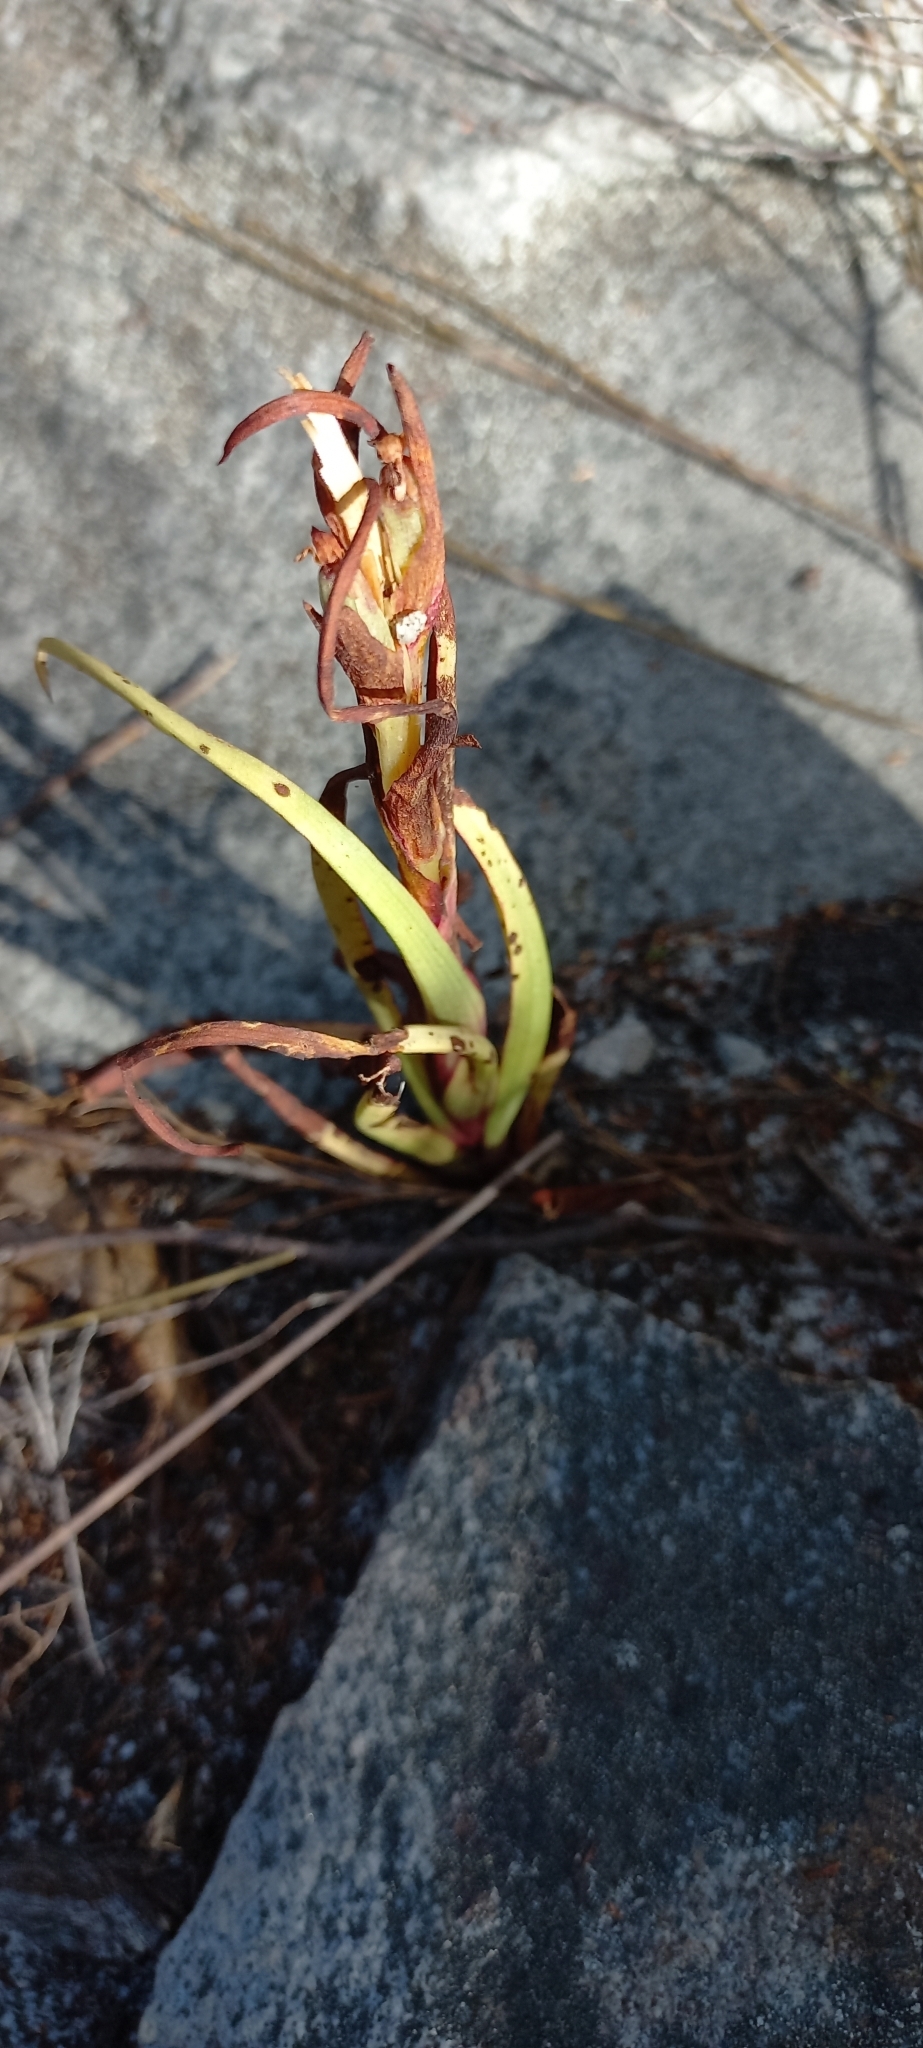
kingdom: Plantae
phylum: Tracheophyta
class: Liliopsida
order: Asparagales
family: Orchidaceae
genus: Disa
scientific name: Disa bracteata
